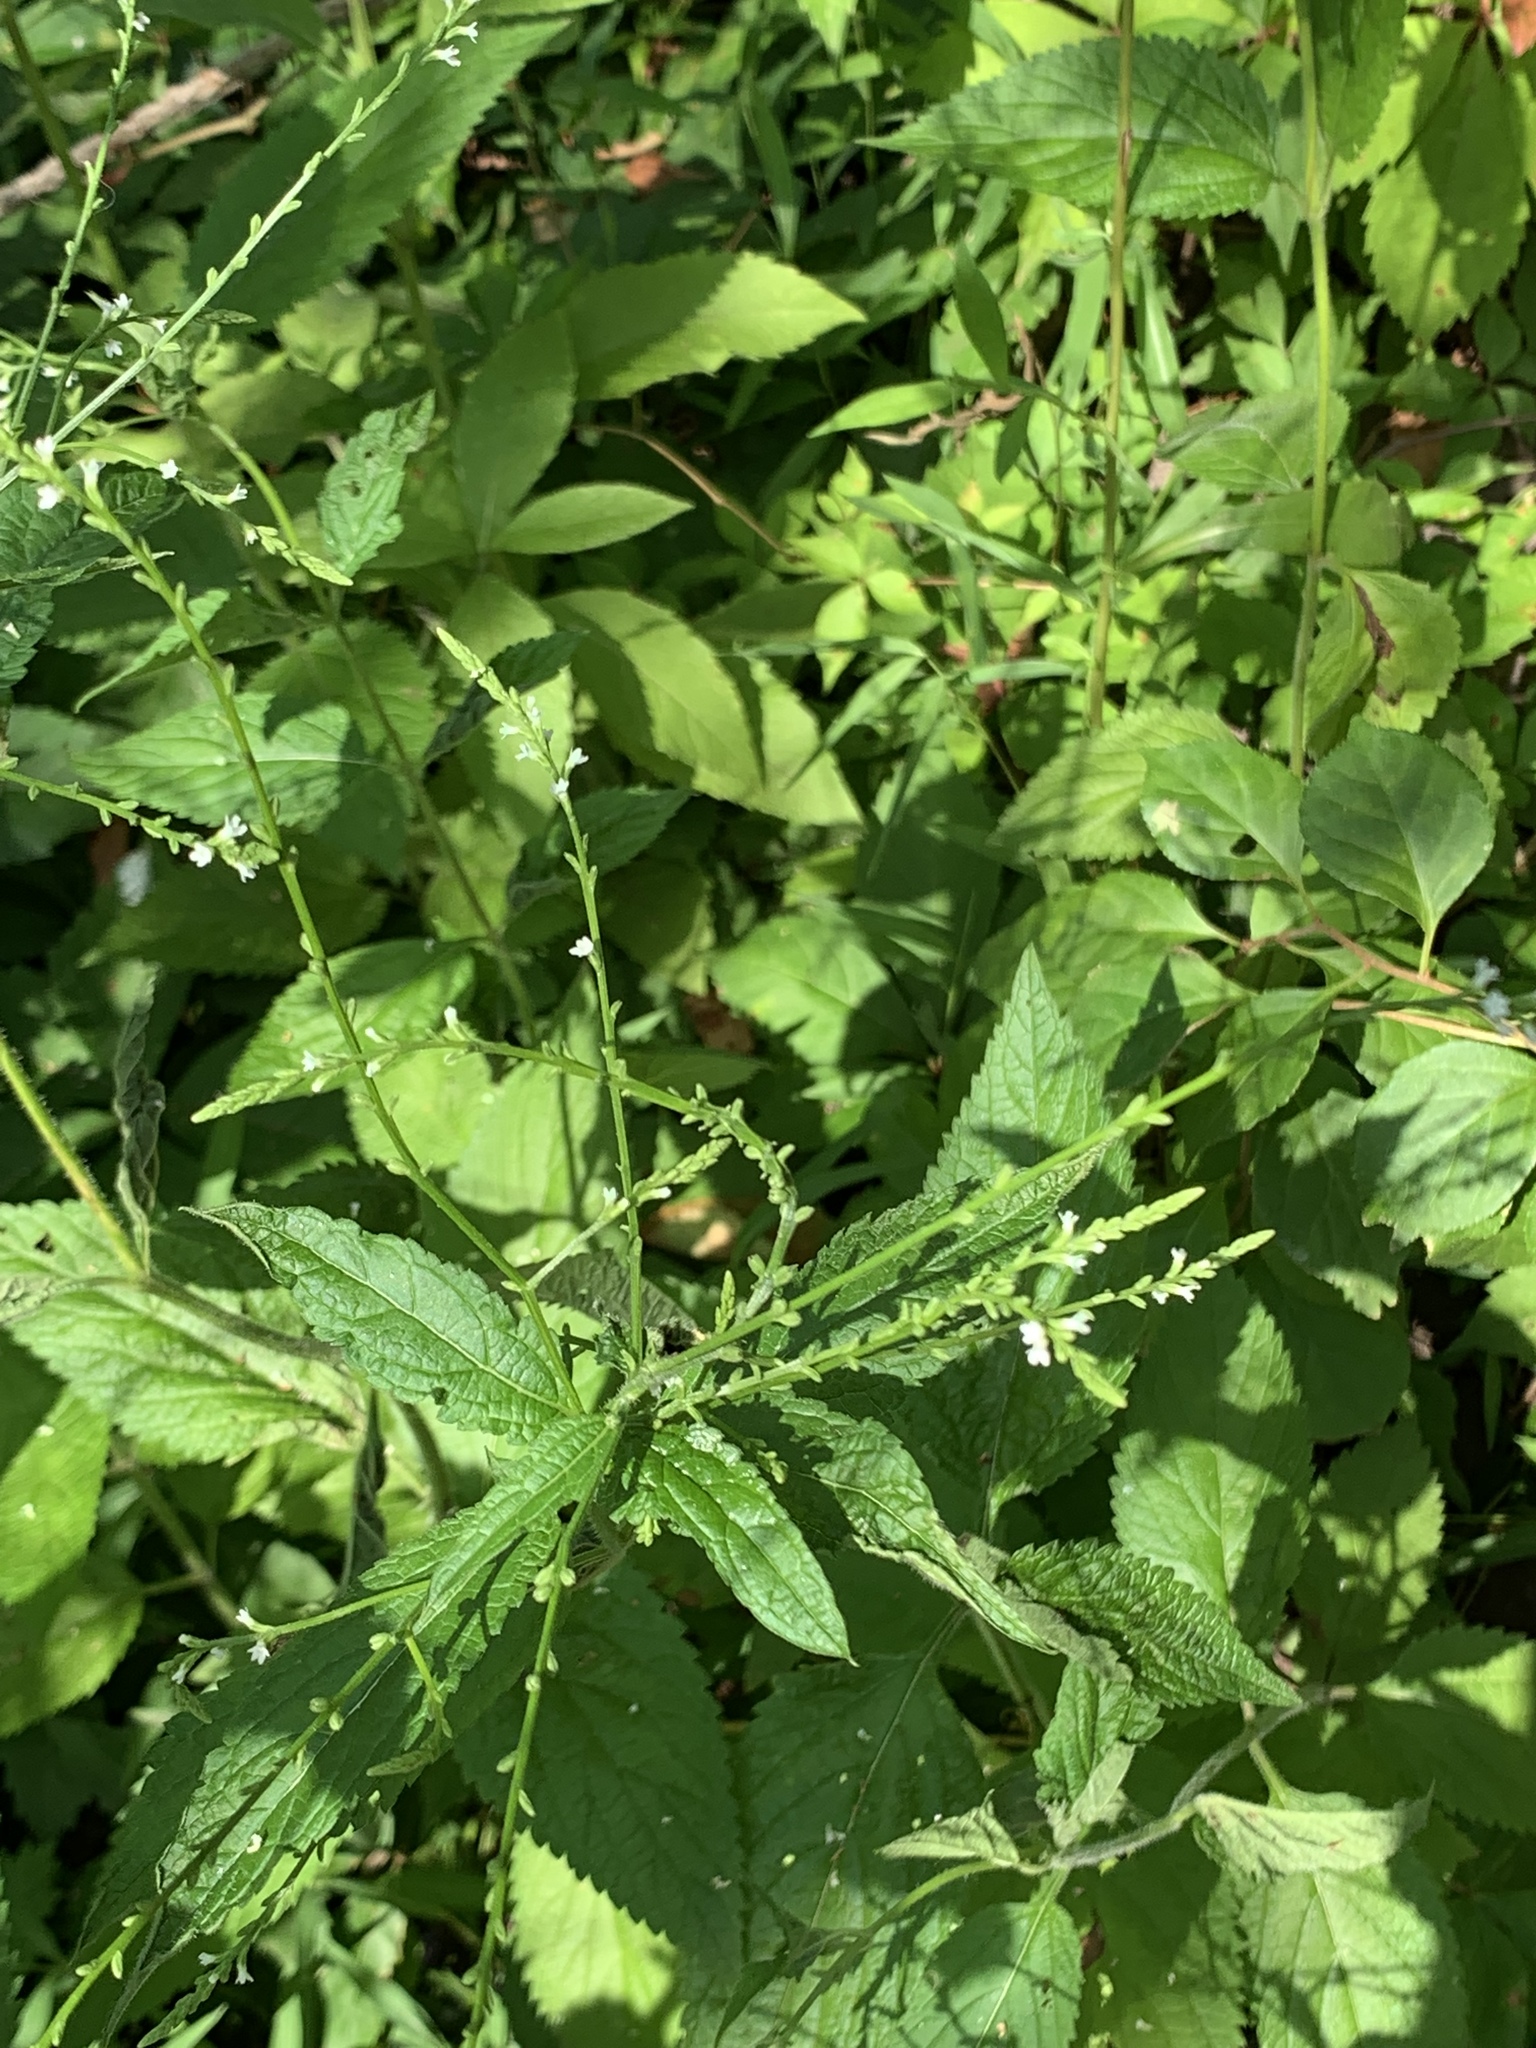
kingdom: Plantae
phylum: Tracheophyta
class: Magnoliopsida
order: Lamiales
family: Verbenaceae
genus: Verbena
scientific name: Verbena urticifolia
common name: Nettle-leaved vervain
